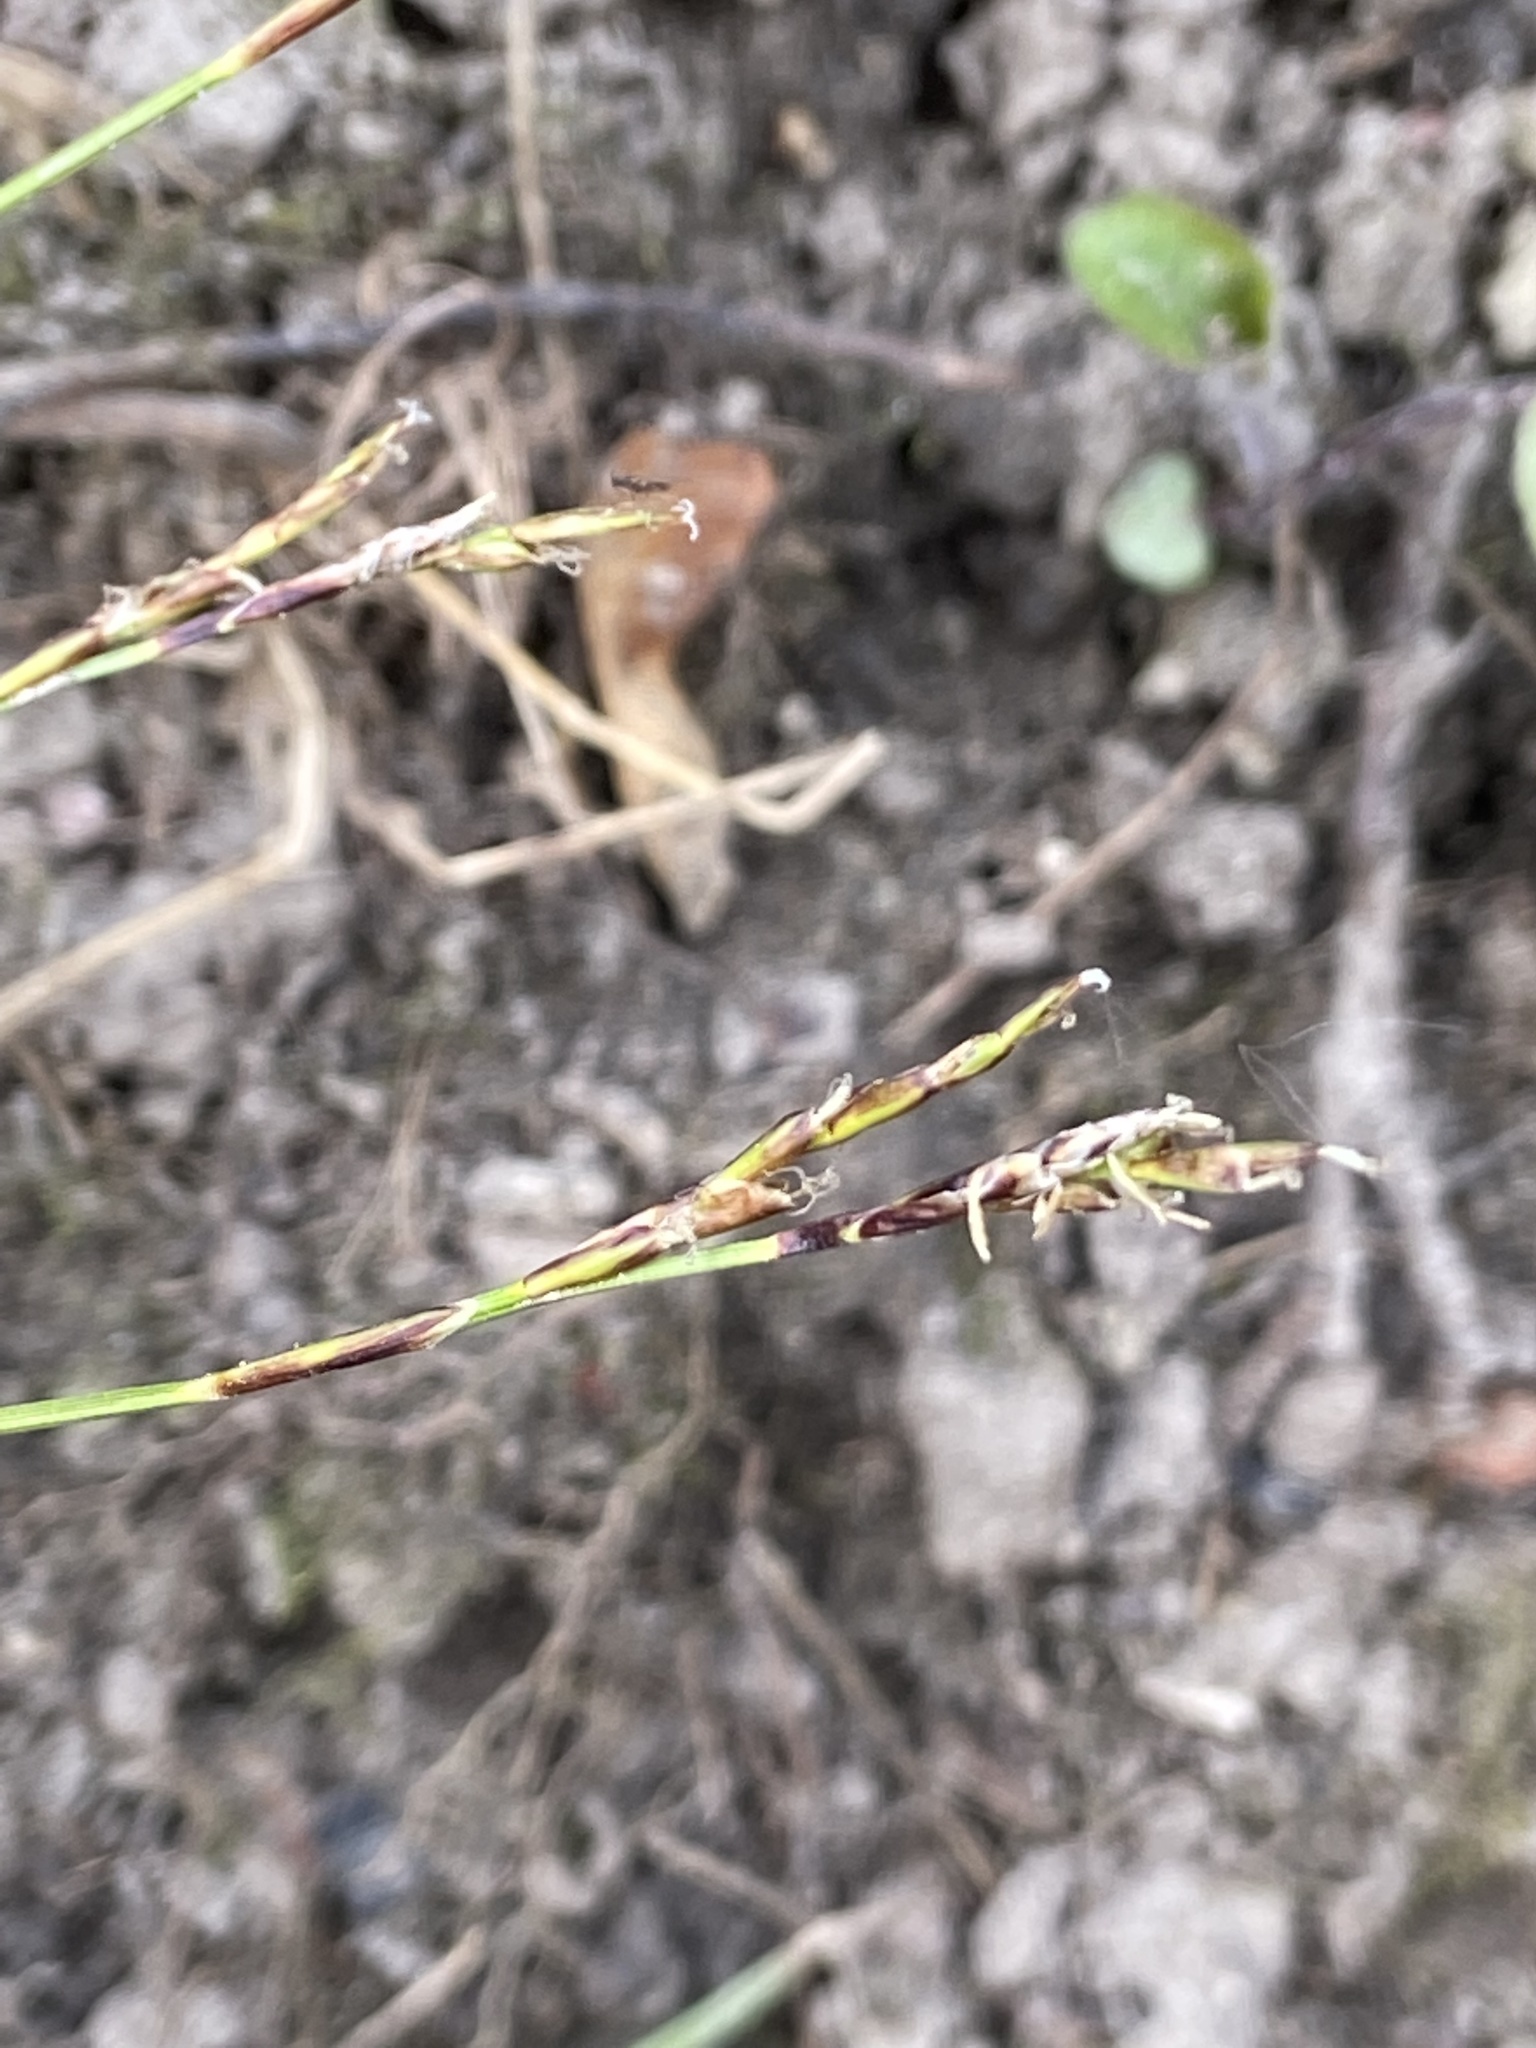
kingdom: Plantae
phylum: Tracheophyta
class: Liliopsida
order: Poales
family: Cyperaceae
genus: Carex
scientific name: Carex digitata
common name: Fingered sedge
